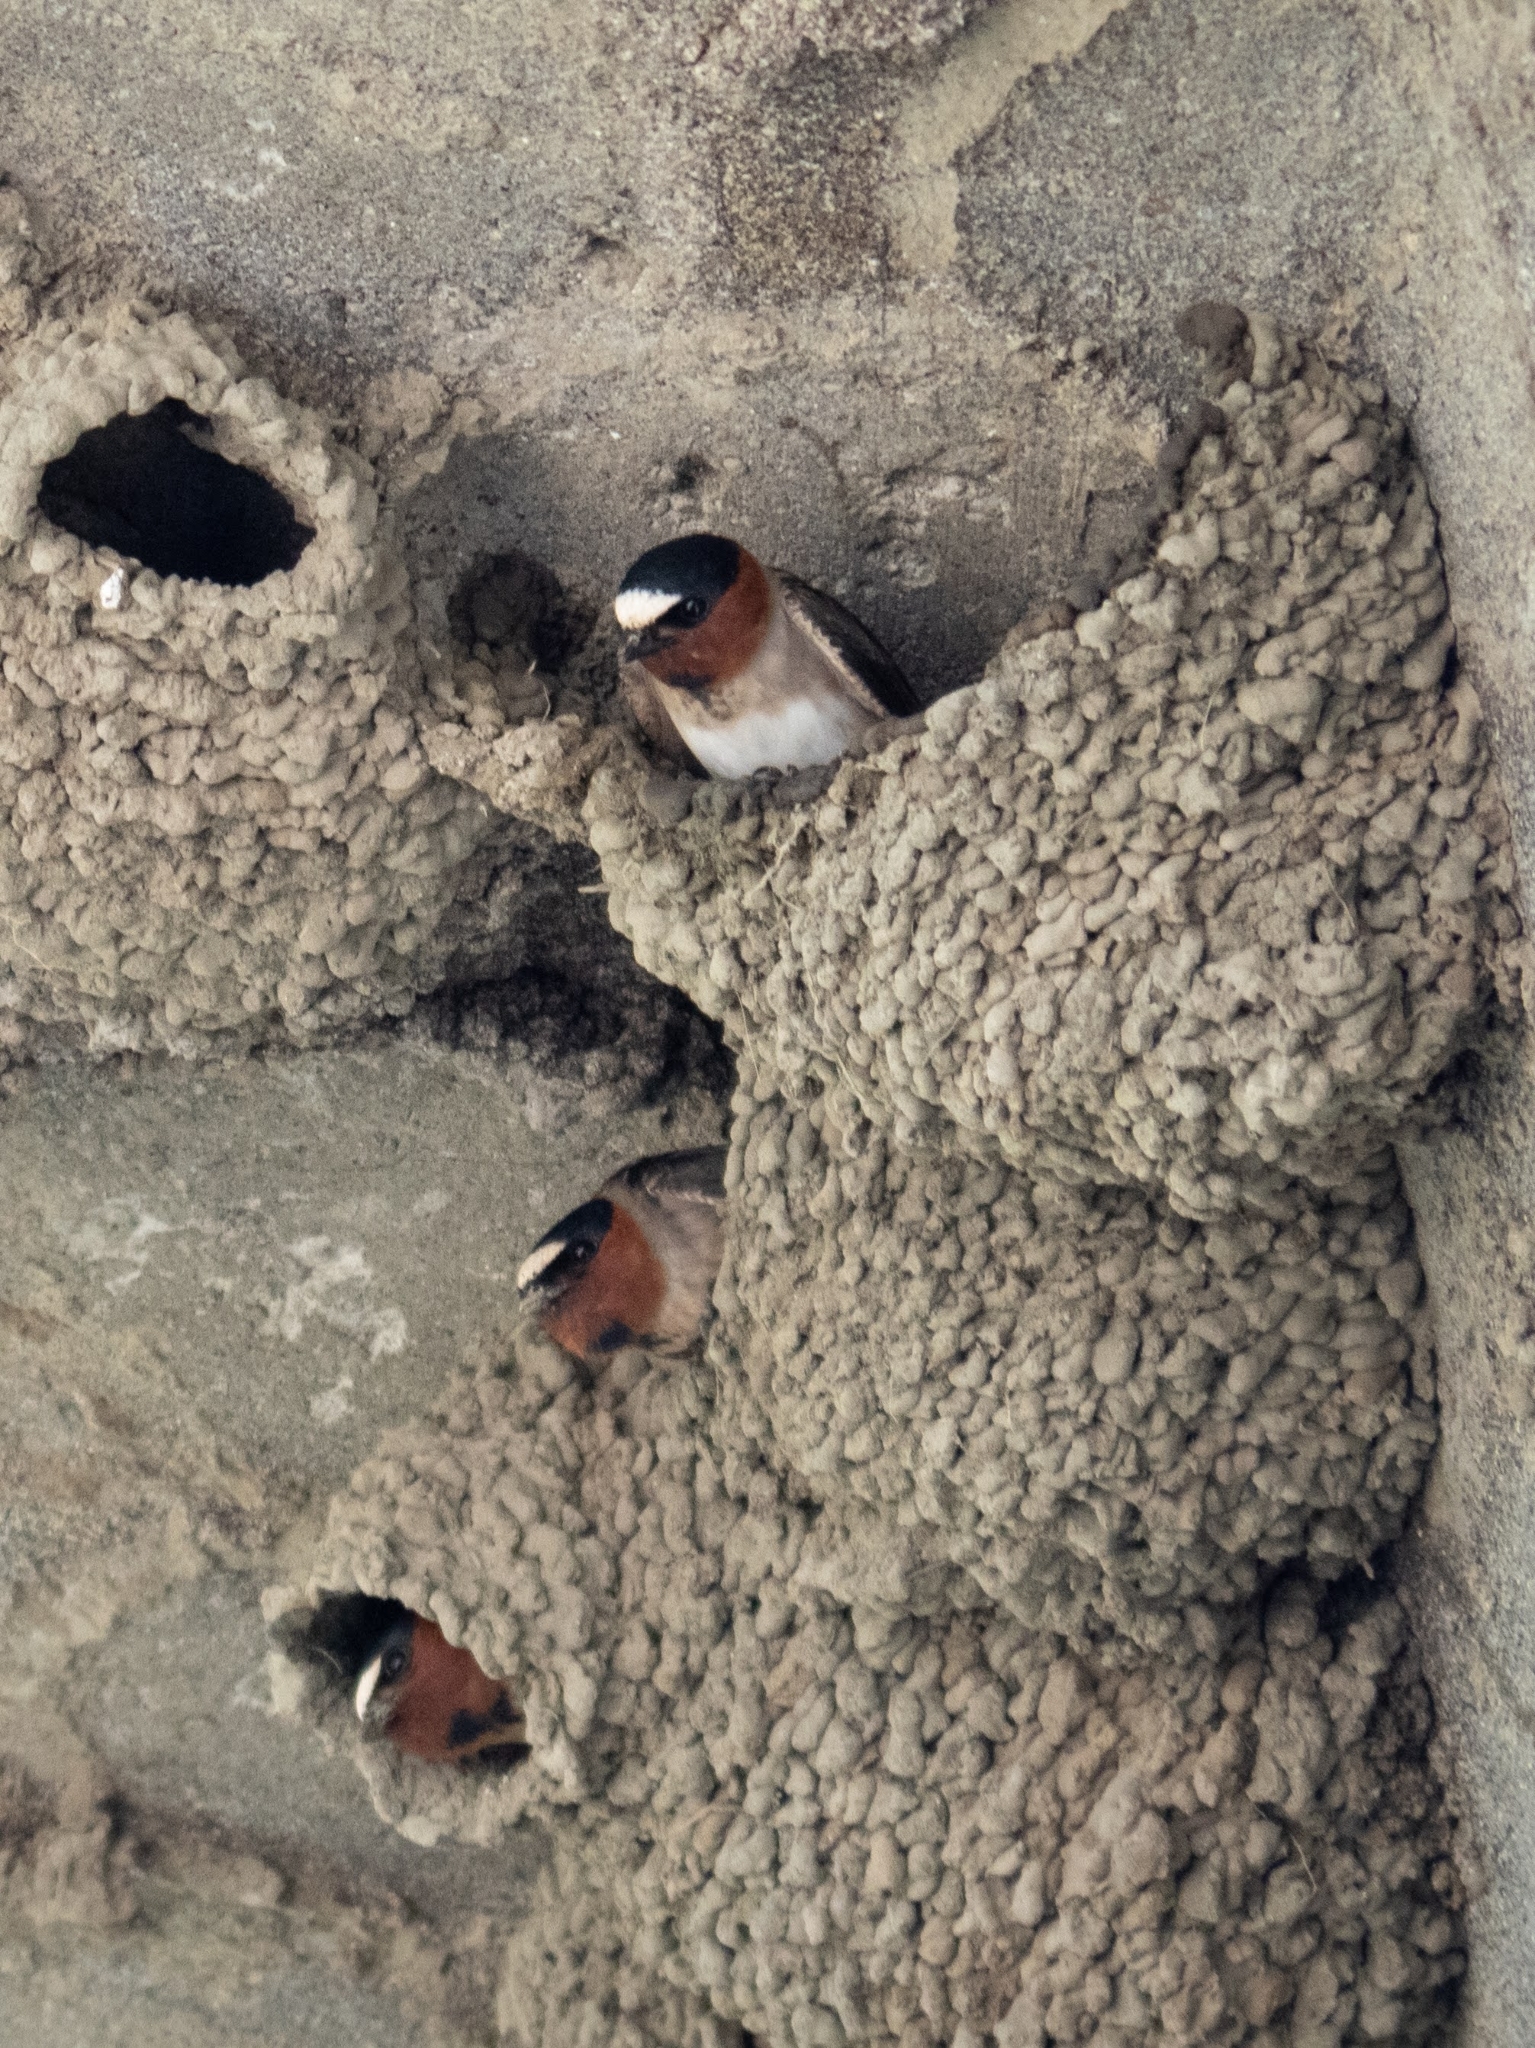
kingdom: Animalia
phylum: Chordata
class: Aves
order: Passeriformes
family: Hirundinidae
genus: Petrochelidon
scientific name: Petrochelidon pyrrhonota
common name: American cliff swallow
